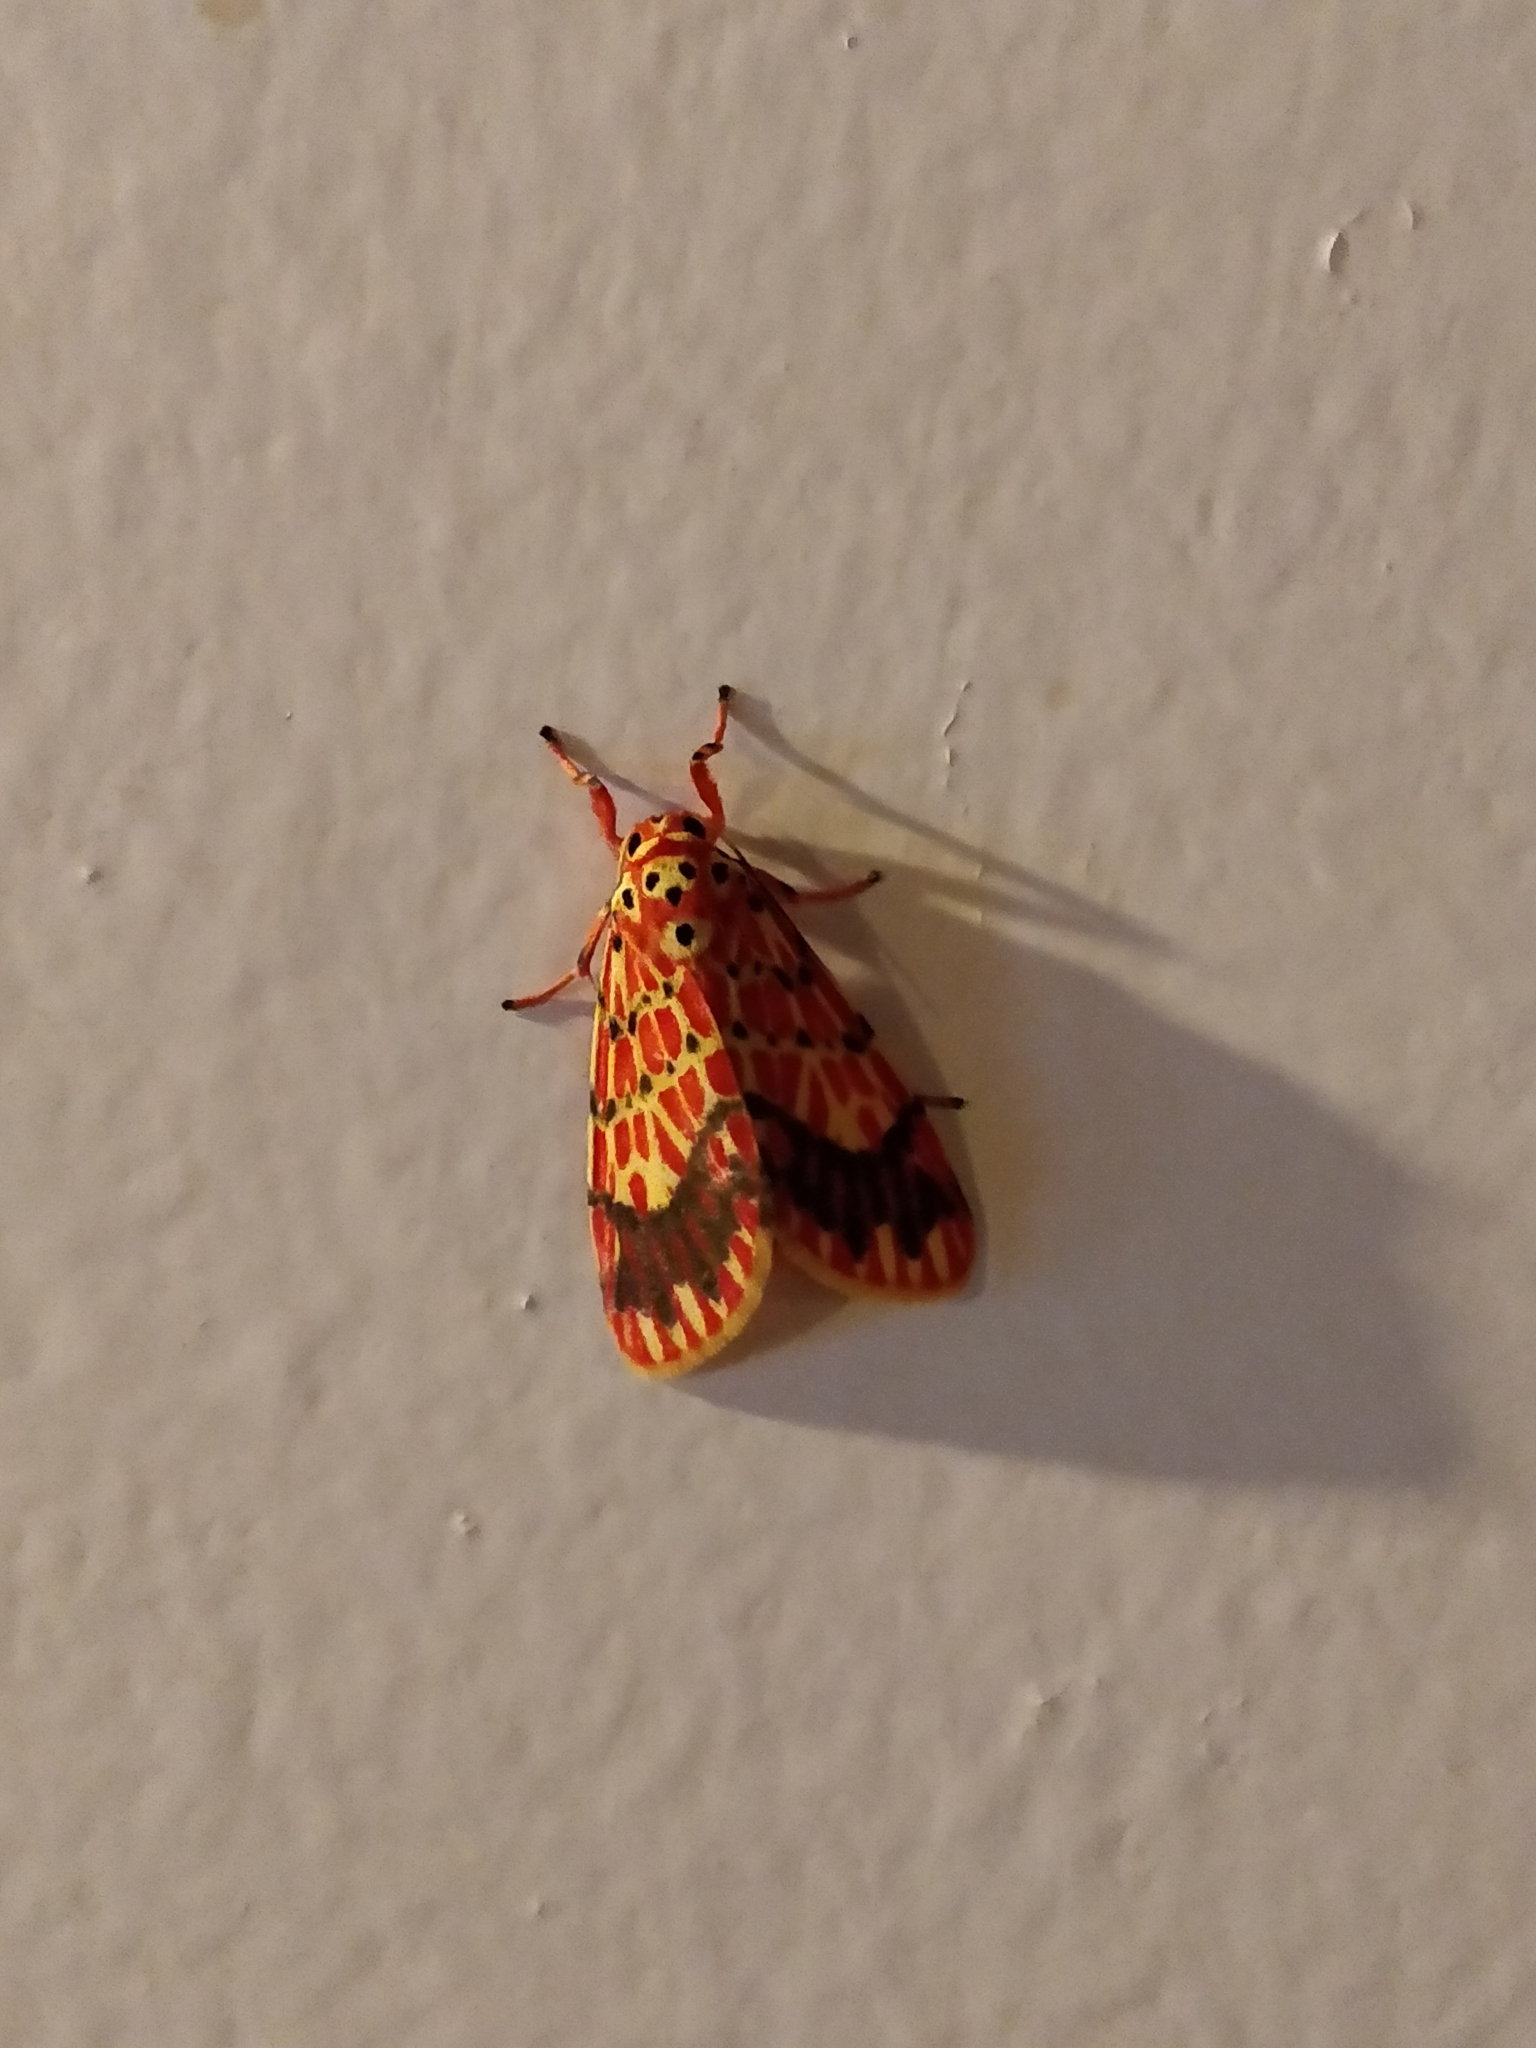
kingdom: Animalia
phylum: Arthropoda
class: Insecta
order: Lepidoptera
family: Erebidae
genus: Barsine
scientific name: Barsine gratiosa
